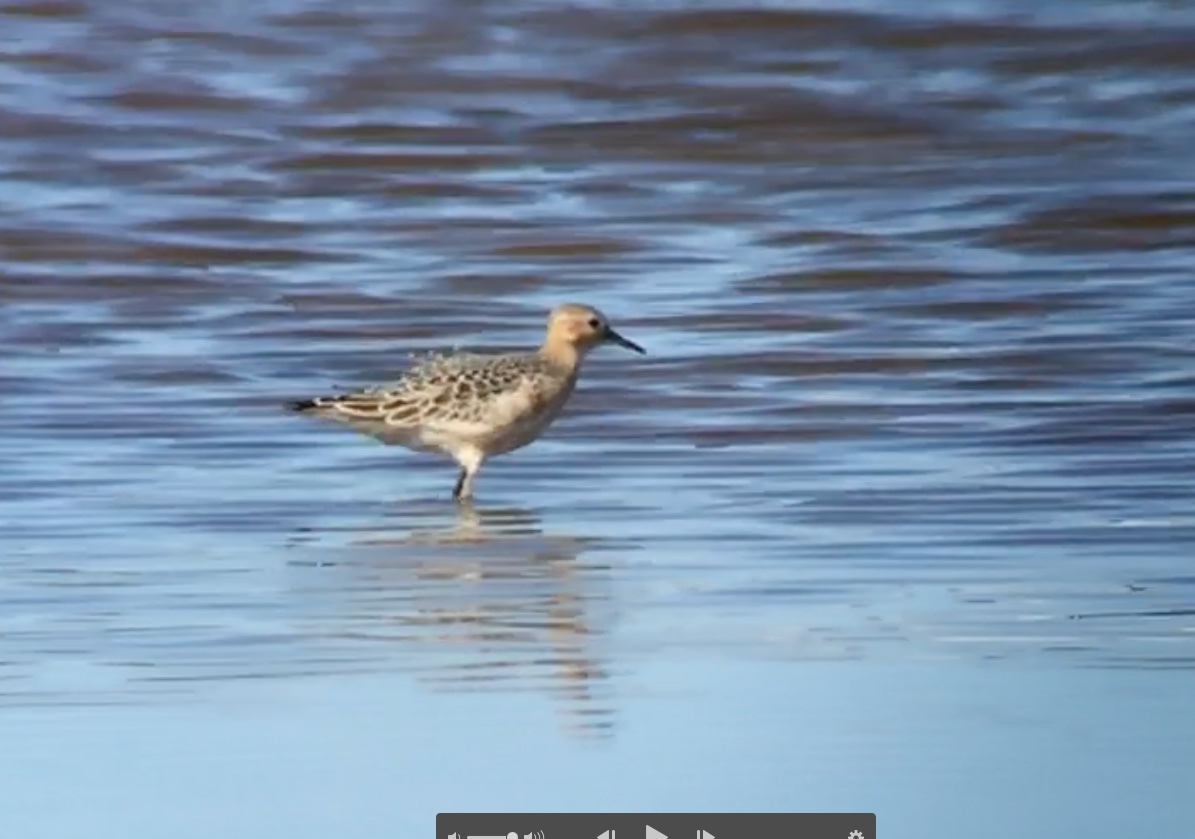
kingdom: Animalia
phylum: Chordata
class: Aves
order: Charadriiformes
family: Scolopacidae
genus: Calidris
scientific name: Calidris subruficollis
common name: Buff-breasted sandpiper
